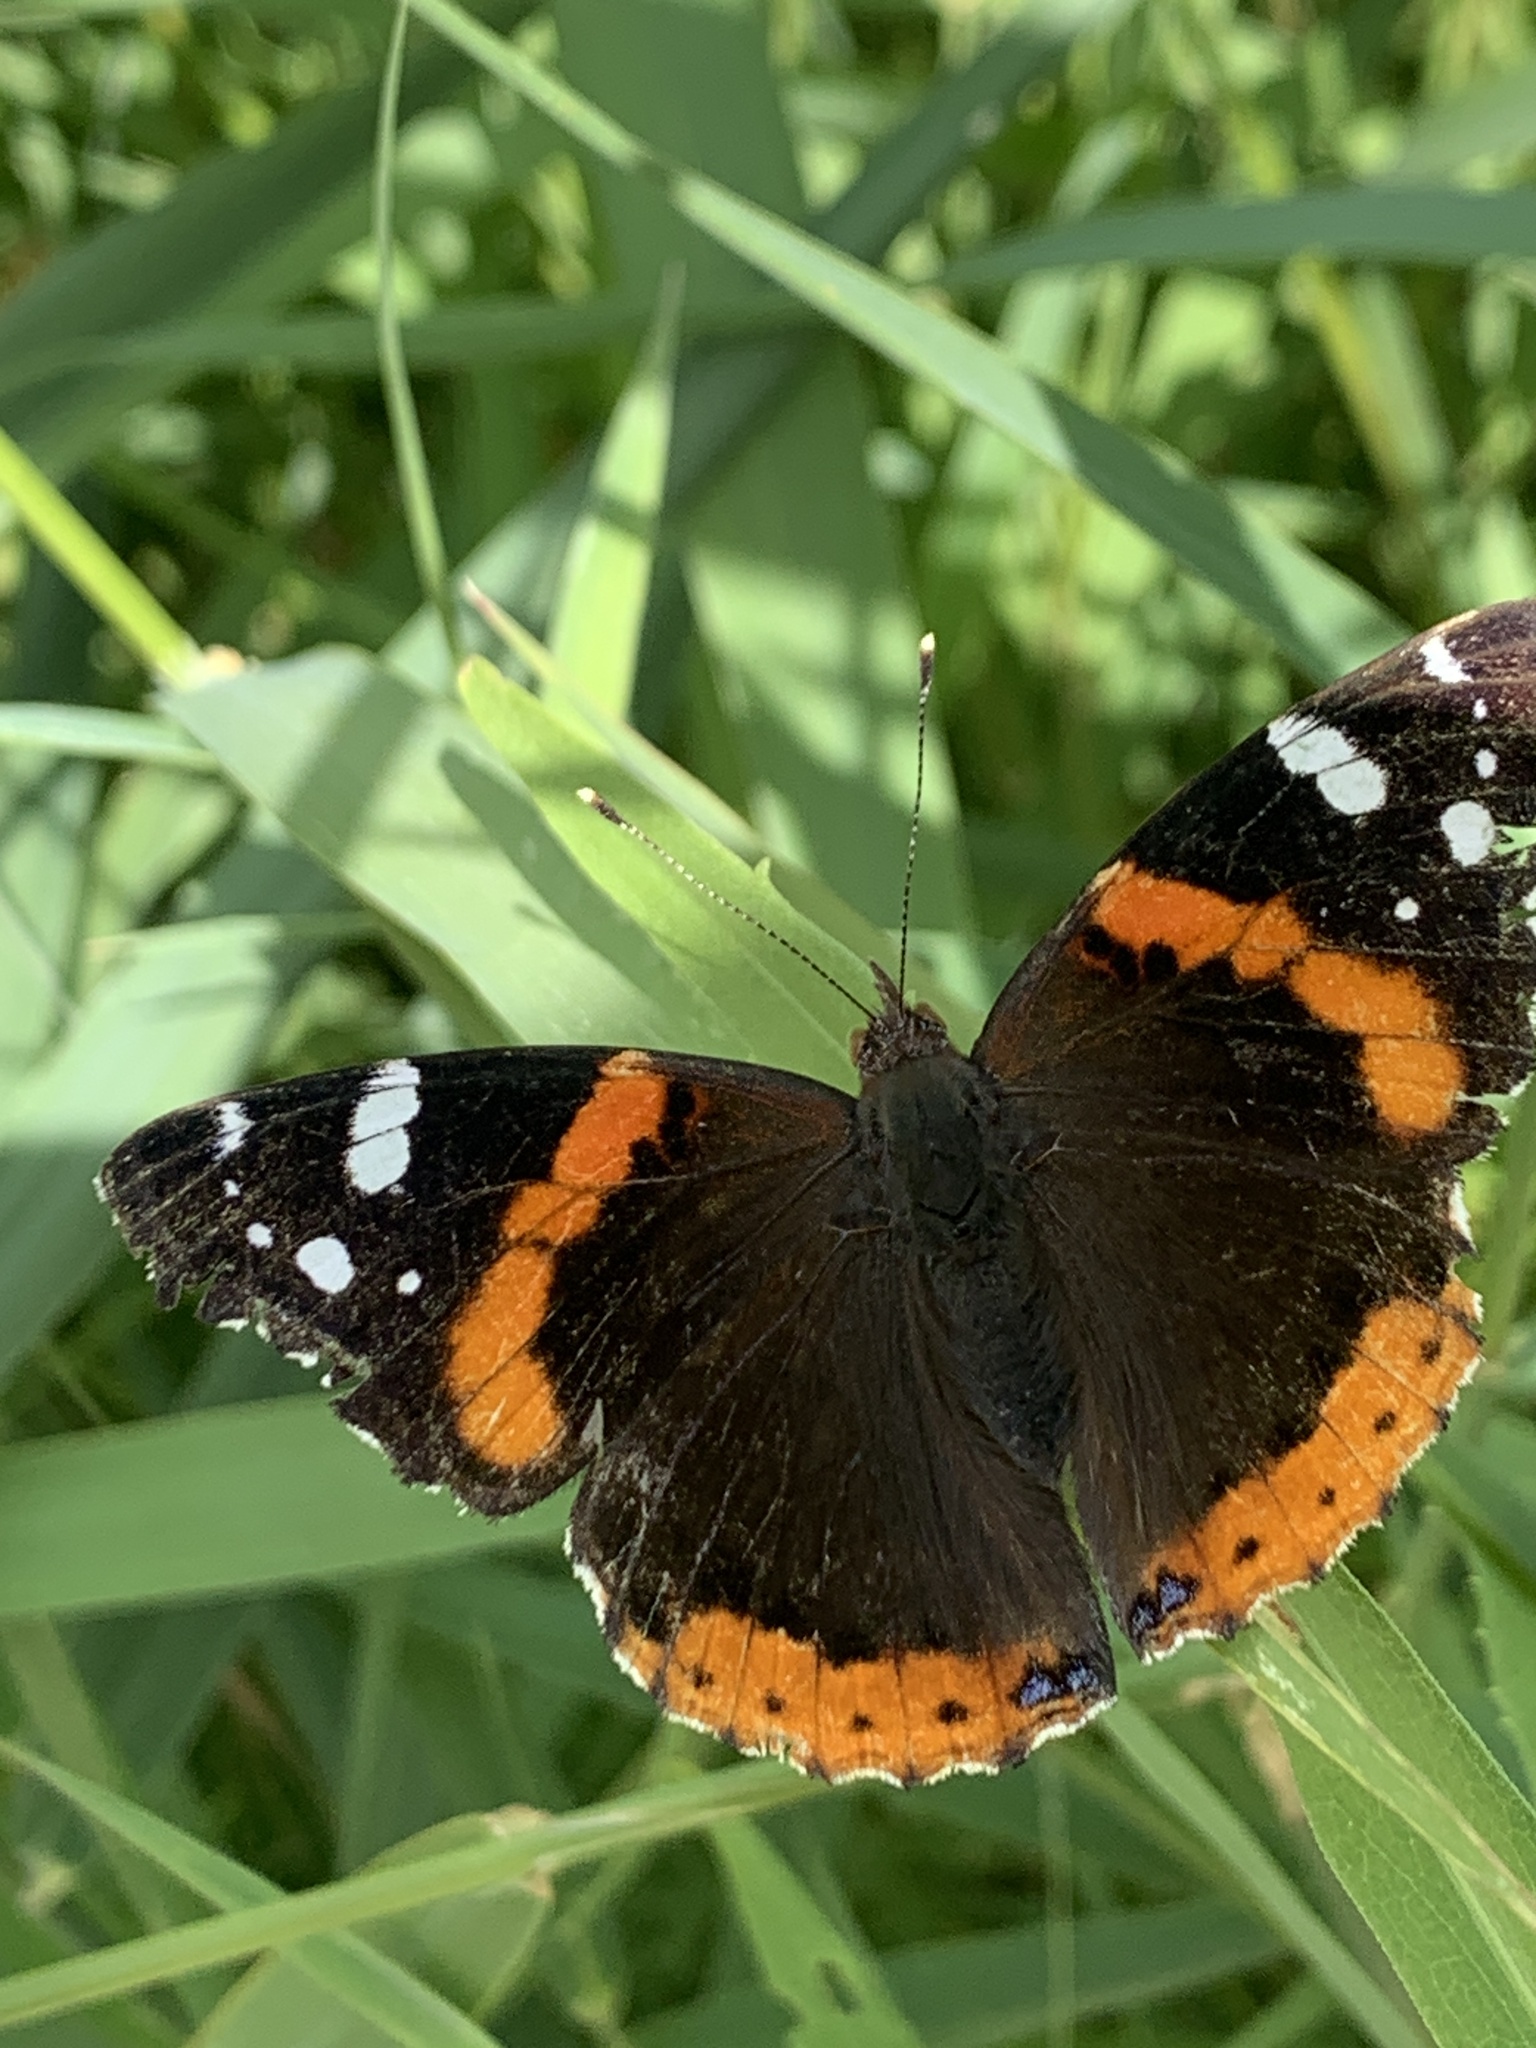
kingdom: Animalia
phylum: Arthropoda
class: Insecta
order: Lepidoptera
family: Nymphalidae
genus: Vanessa
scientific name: Vanessa atalanta
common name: Red admiral
